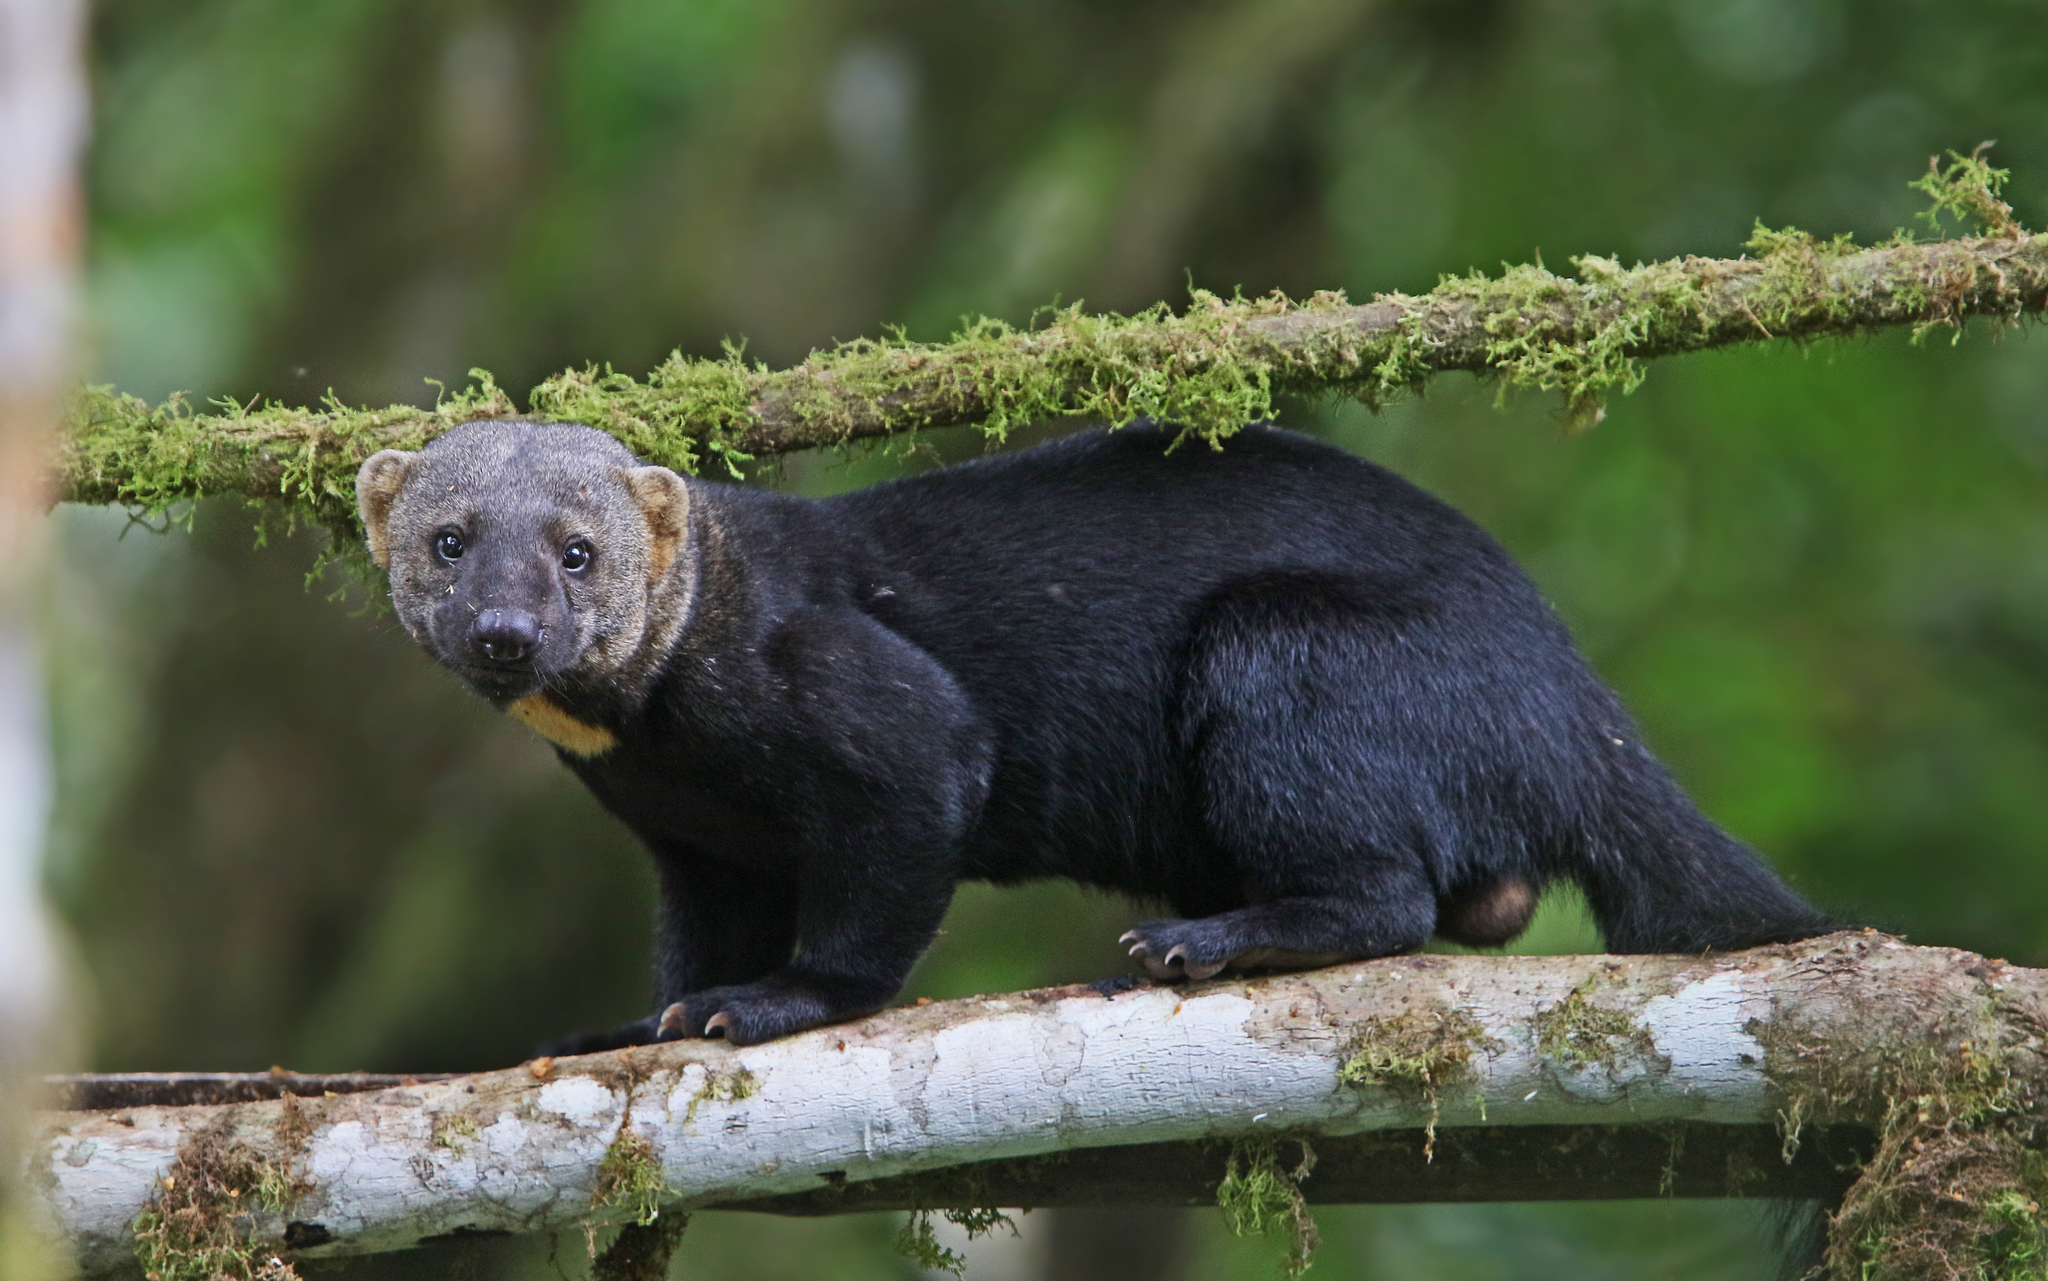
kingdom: Animalia
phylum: Chordata
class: Mammalia
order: Carnivora
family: Mustelidae
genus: Eira
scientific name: Eira barbara
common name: Tayra
